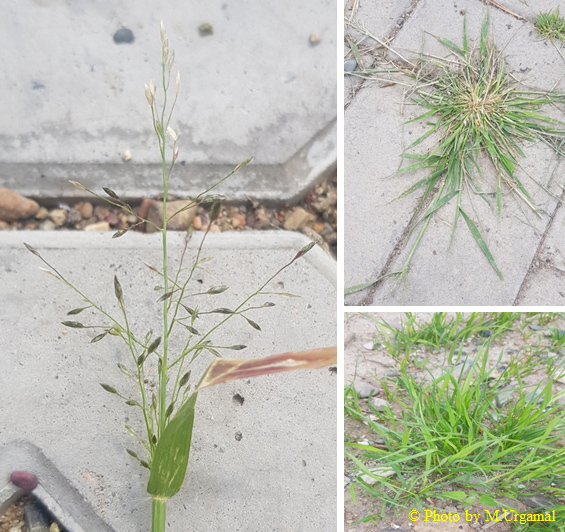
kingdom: Plantae
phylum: Tracheophyta
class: Liliopsida
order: Poales
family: Poaceae
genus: Eragrostis
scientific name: Eragrostis minor
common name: Small love-grass
